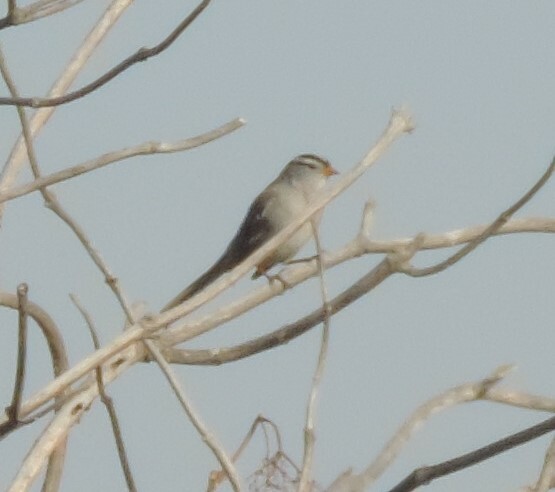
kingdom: Animalia
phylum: Chordata
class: Aves
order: Passeriformes
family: Passerellidae
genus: Zonotrichia
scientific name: Zonotrichia leucophrys
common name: White-crowned sparrow
